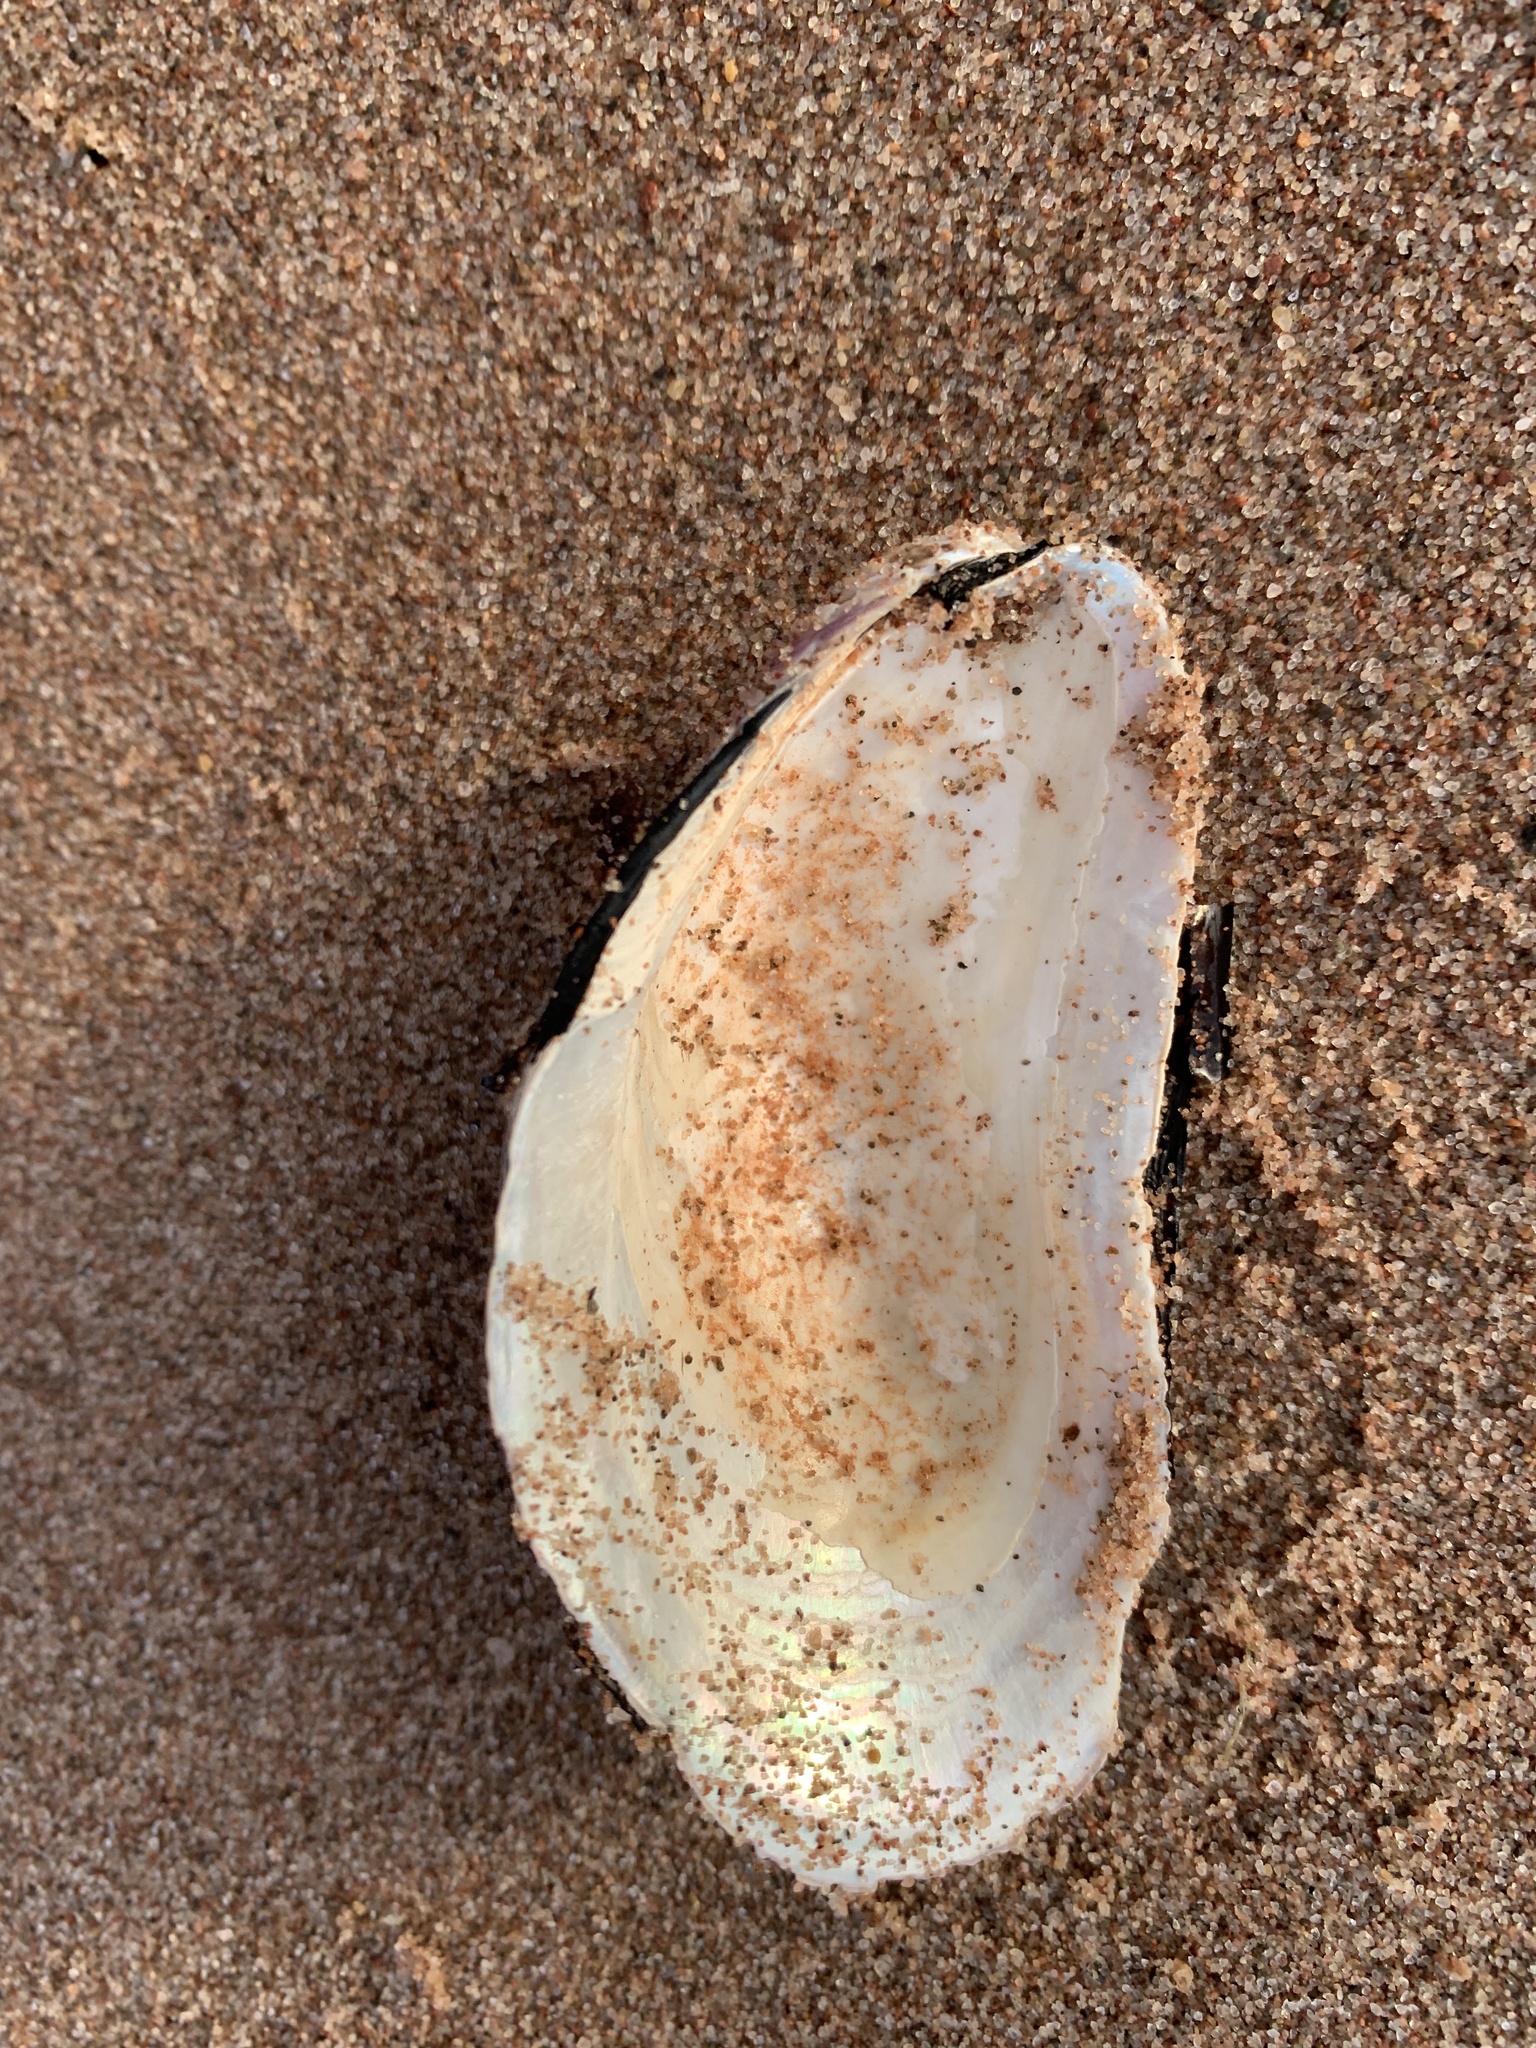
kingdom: Animalia
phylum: Mollusca
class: Bivalvia
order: Mytilida
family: Mytilidae
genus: Modiolus
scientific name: Modiolus modiolus
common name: Horse-mussel
